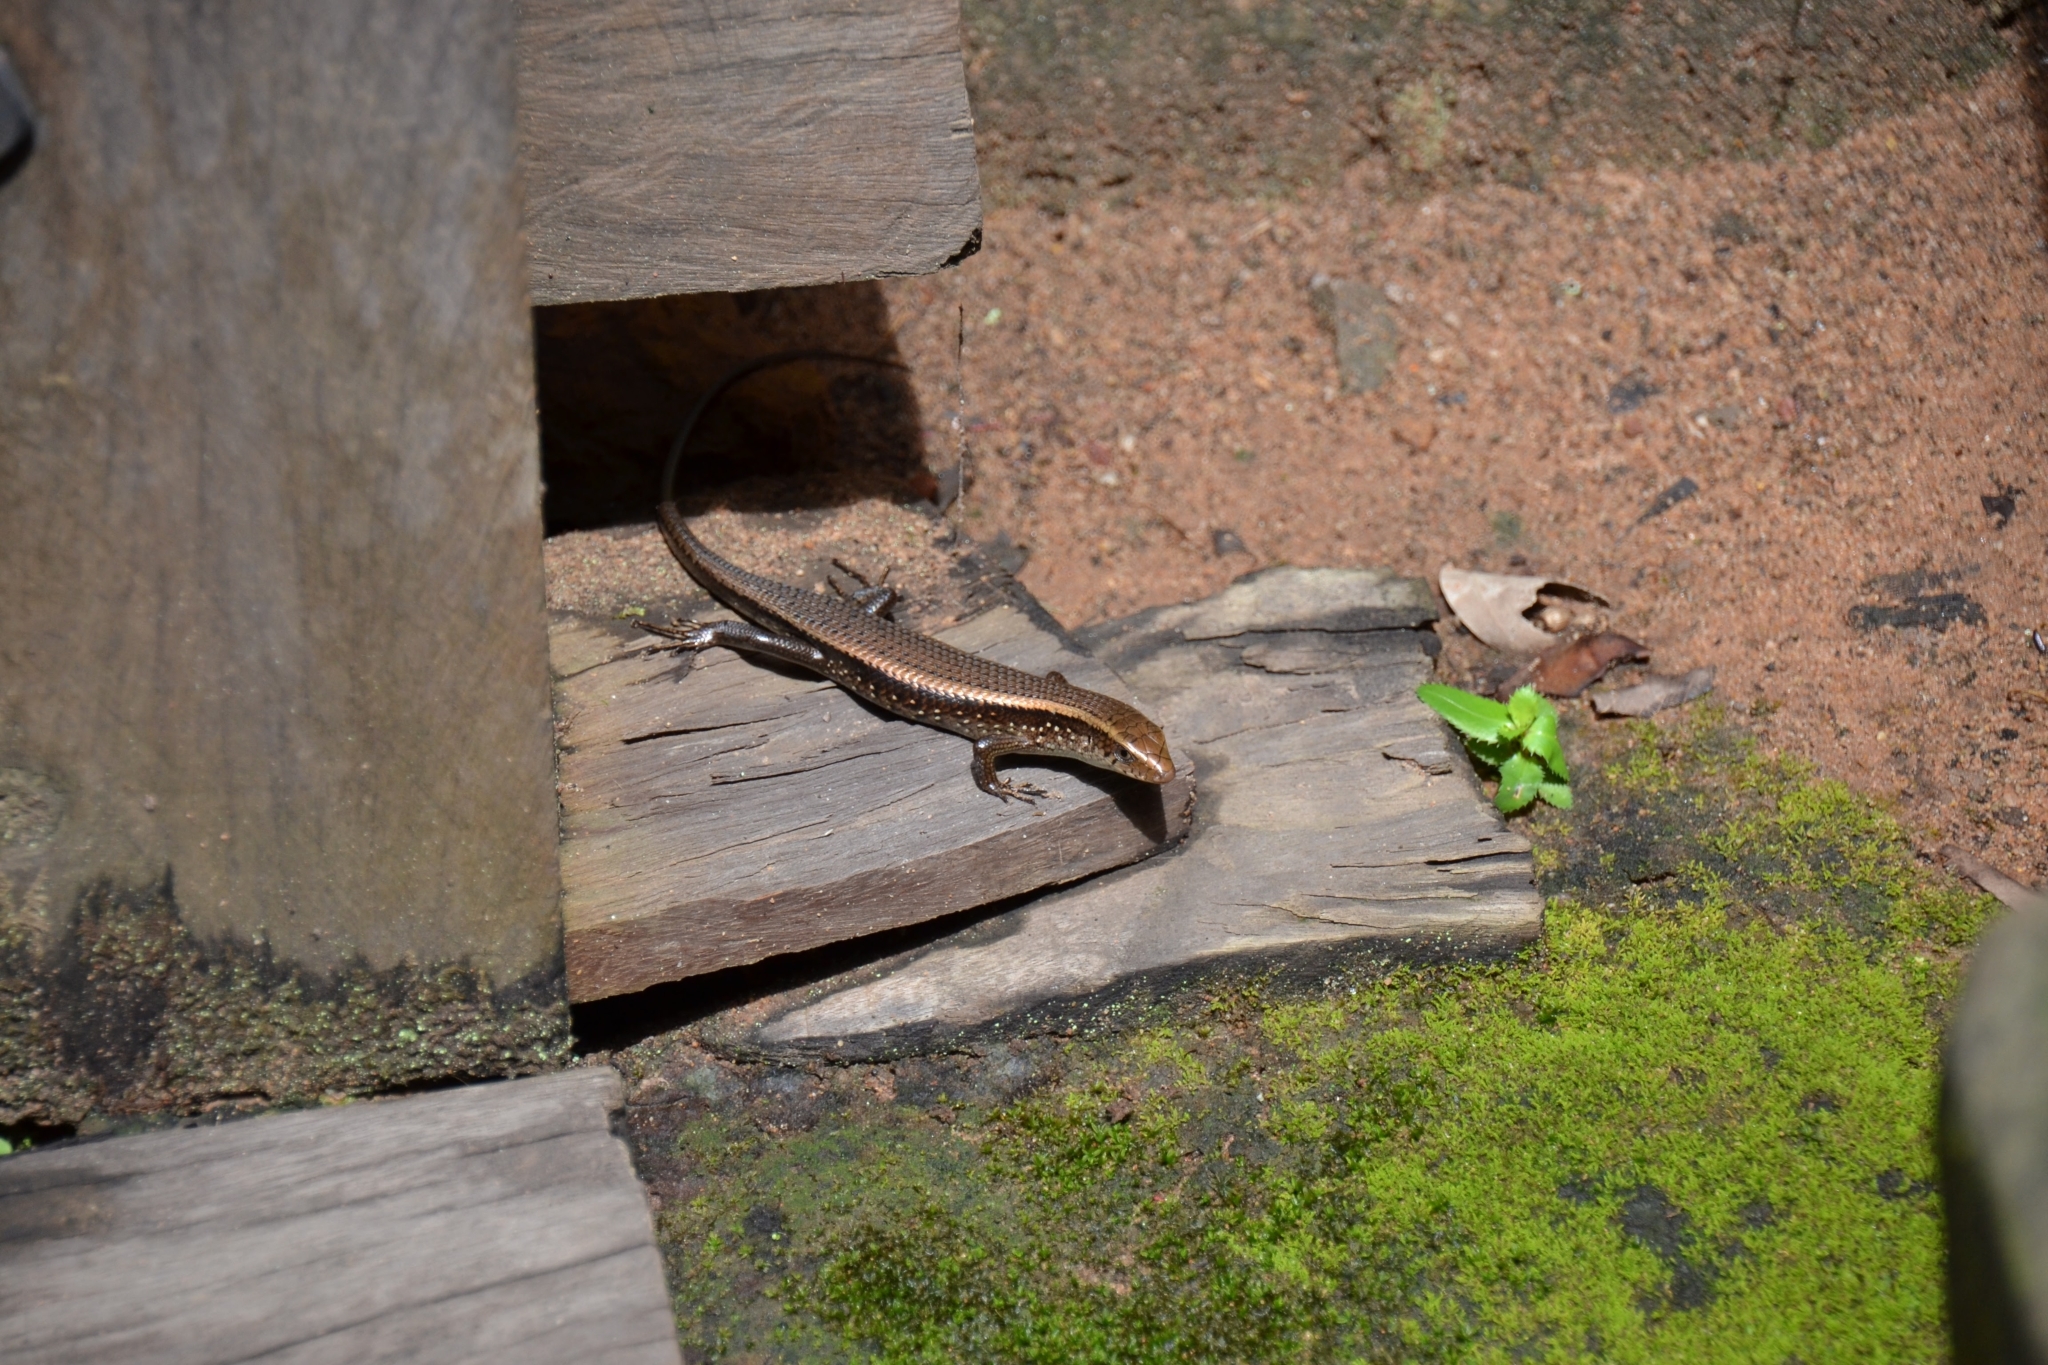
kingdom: Animalia
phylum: Chordata
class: Squamata
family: Scincidae
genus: Eutropis
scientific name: Eutropis multifasciata
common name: Common mabuya
